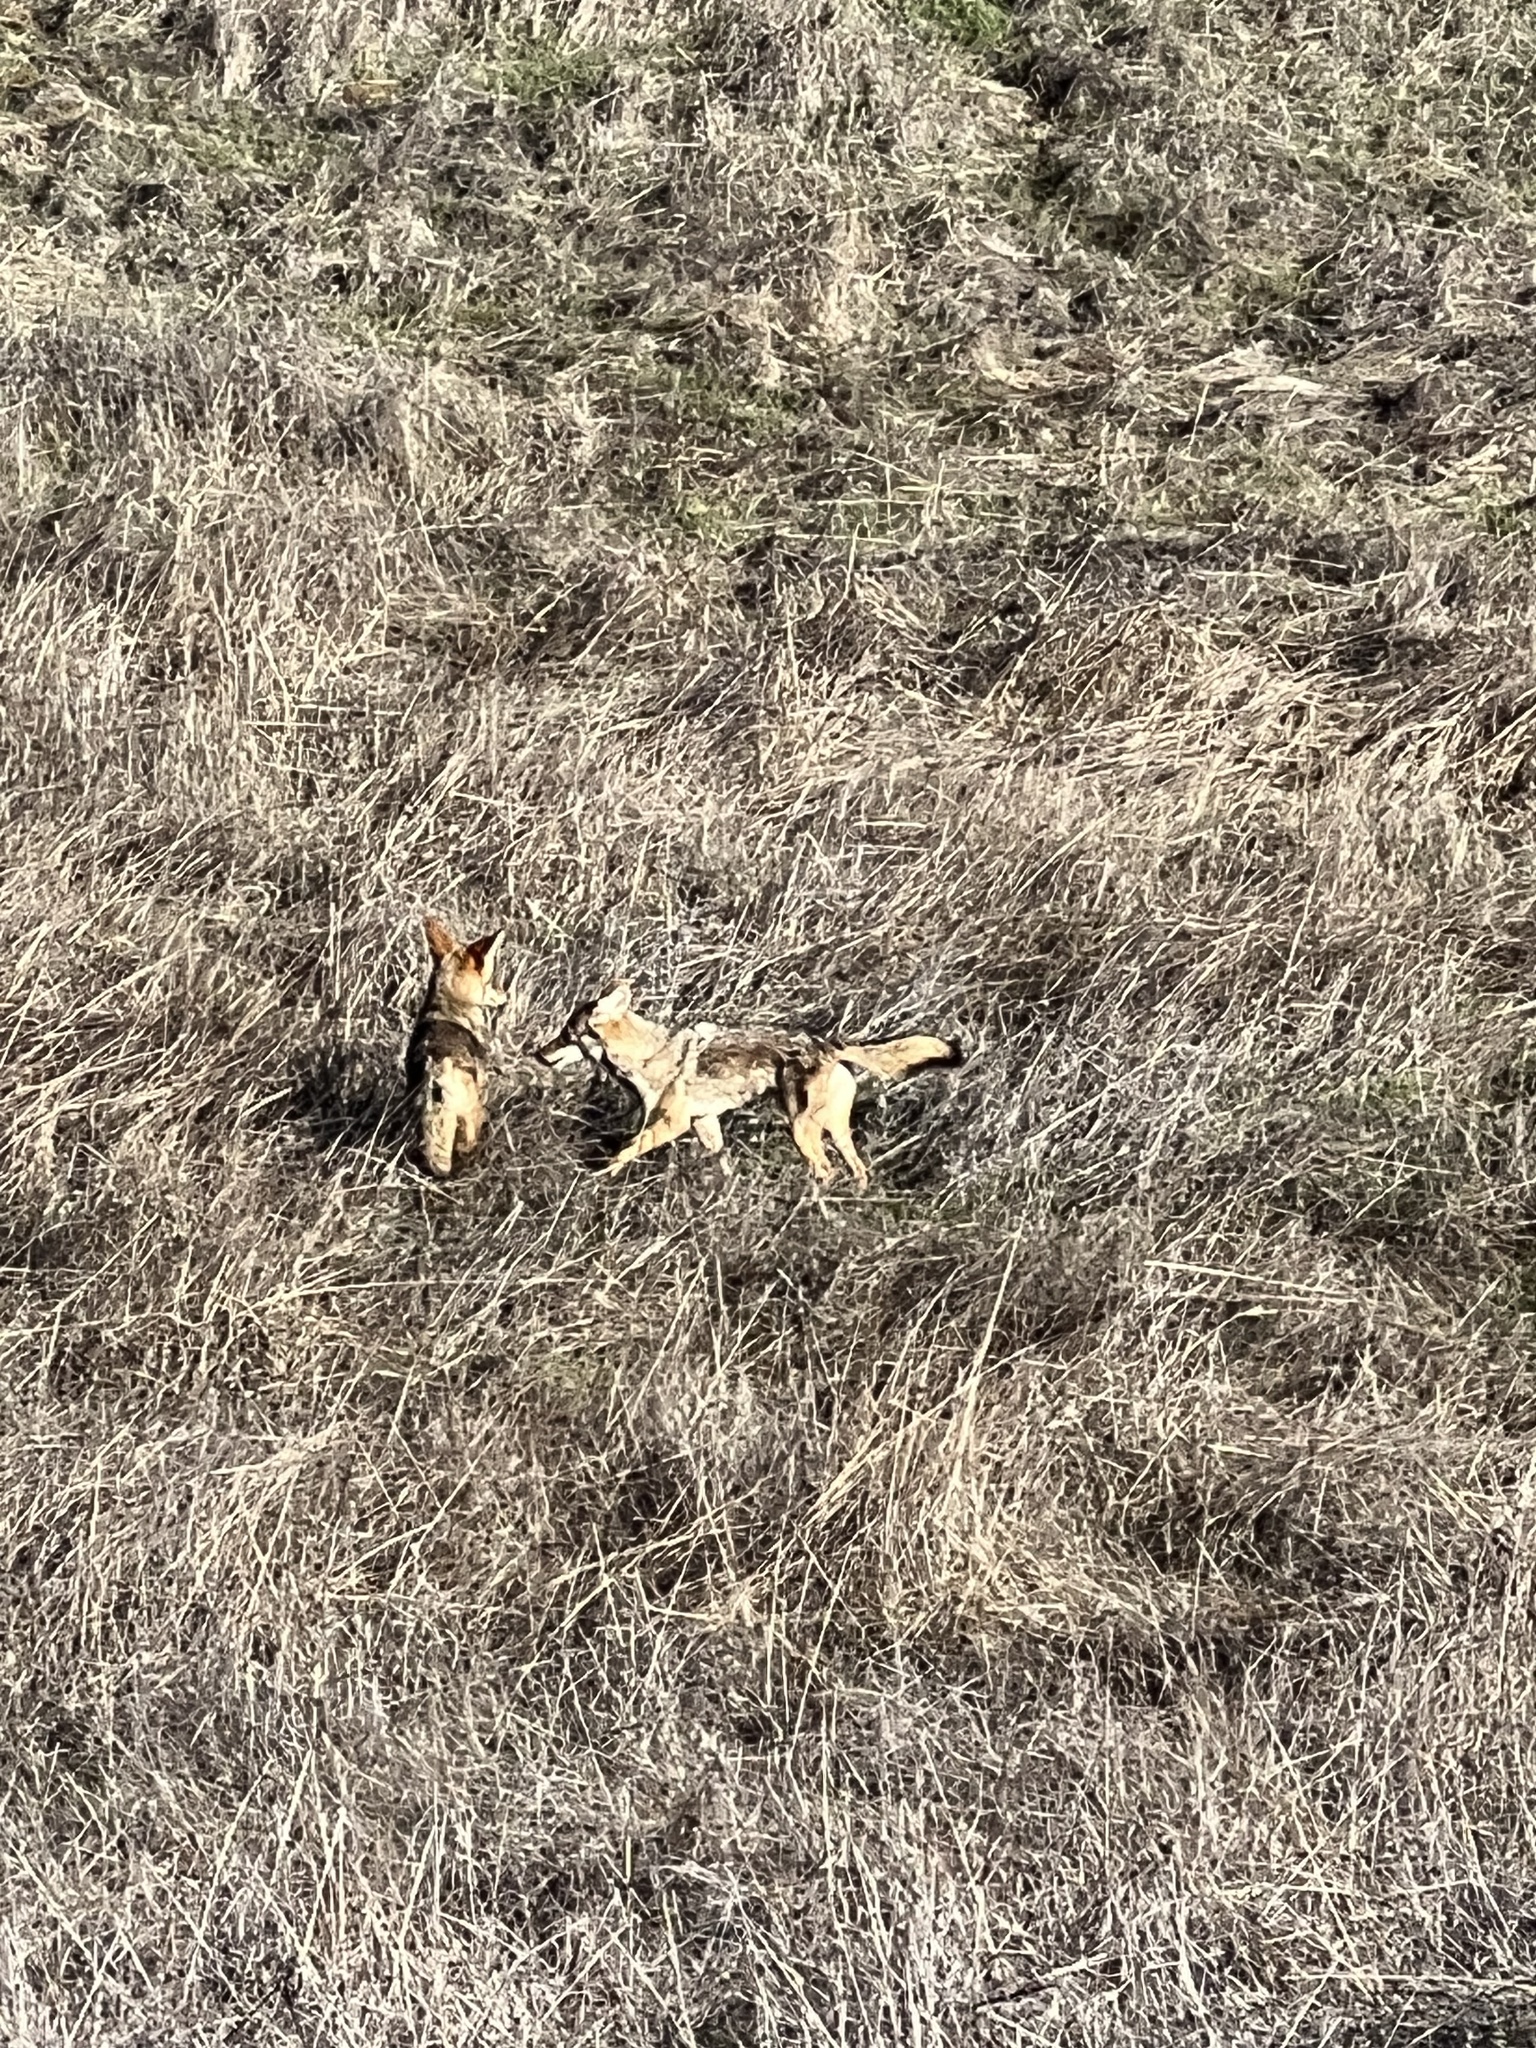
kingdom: Animalia
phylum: Chordata
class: Mammalia
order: Carnivora
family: Canidae
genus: Canis
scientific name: Canis latrans
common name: Coyote
